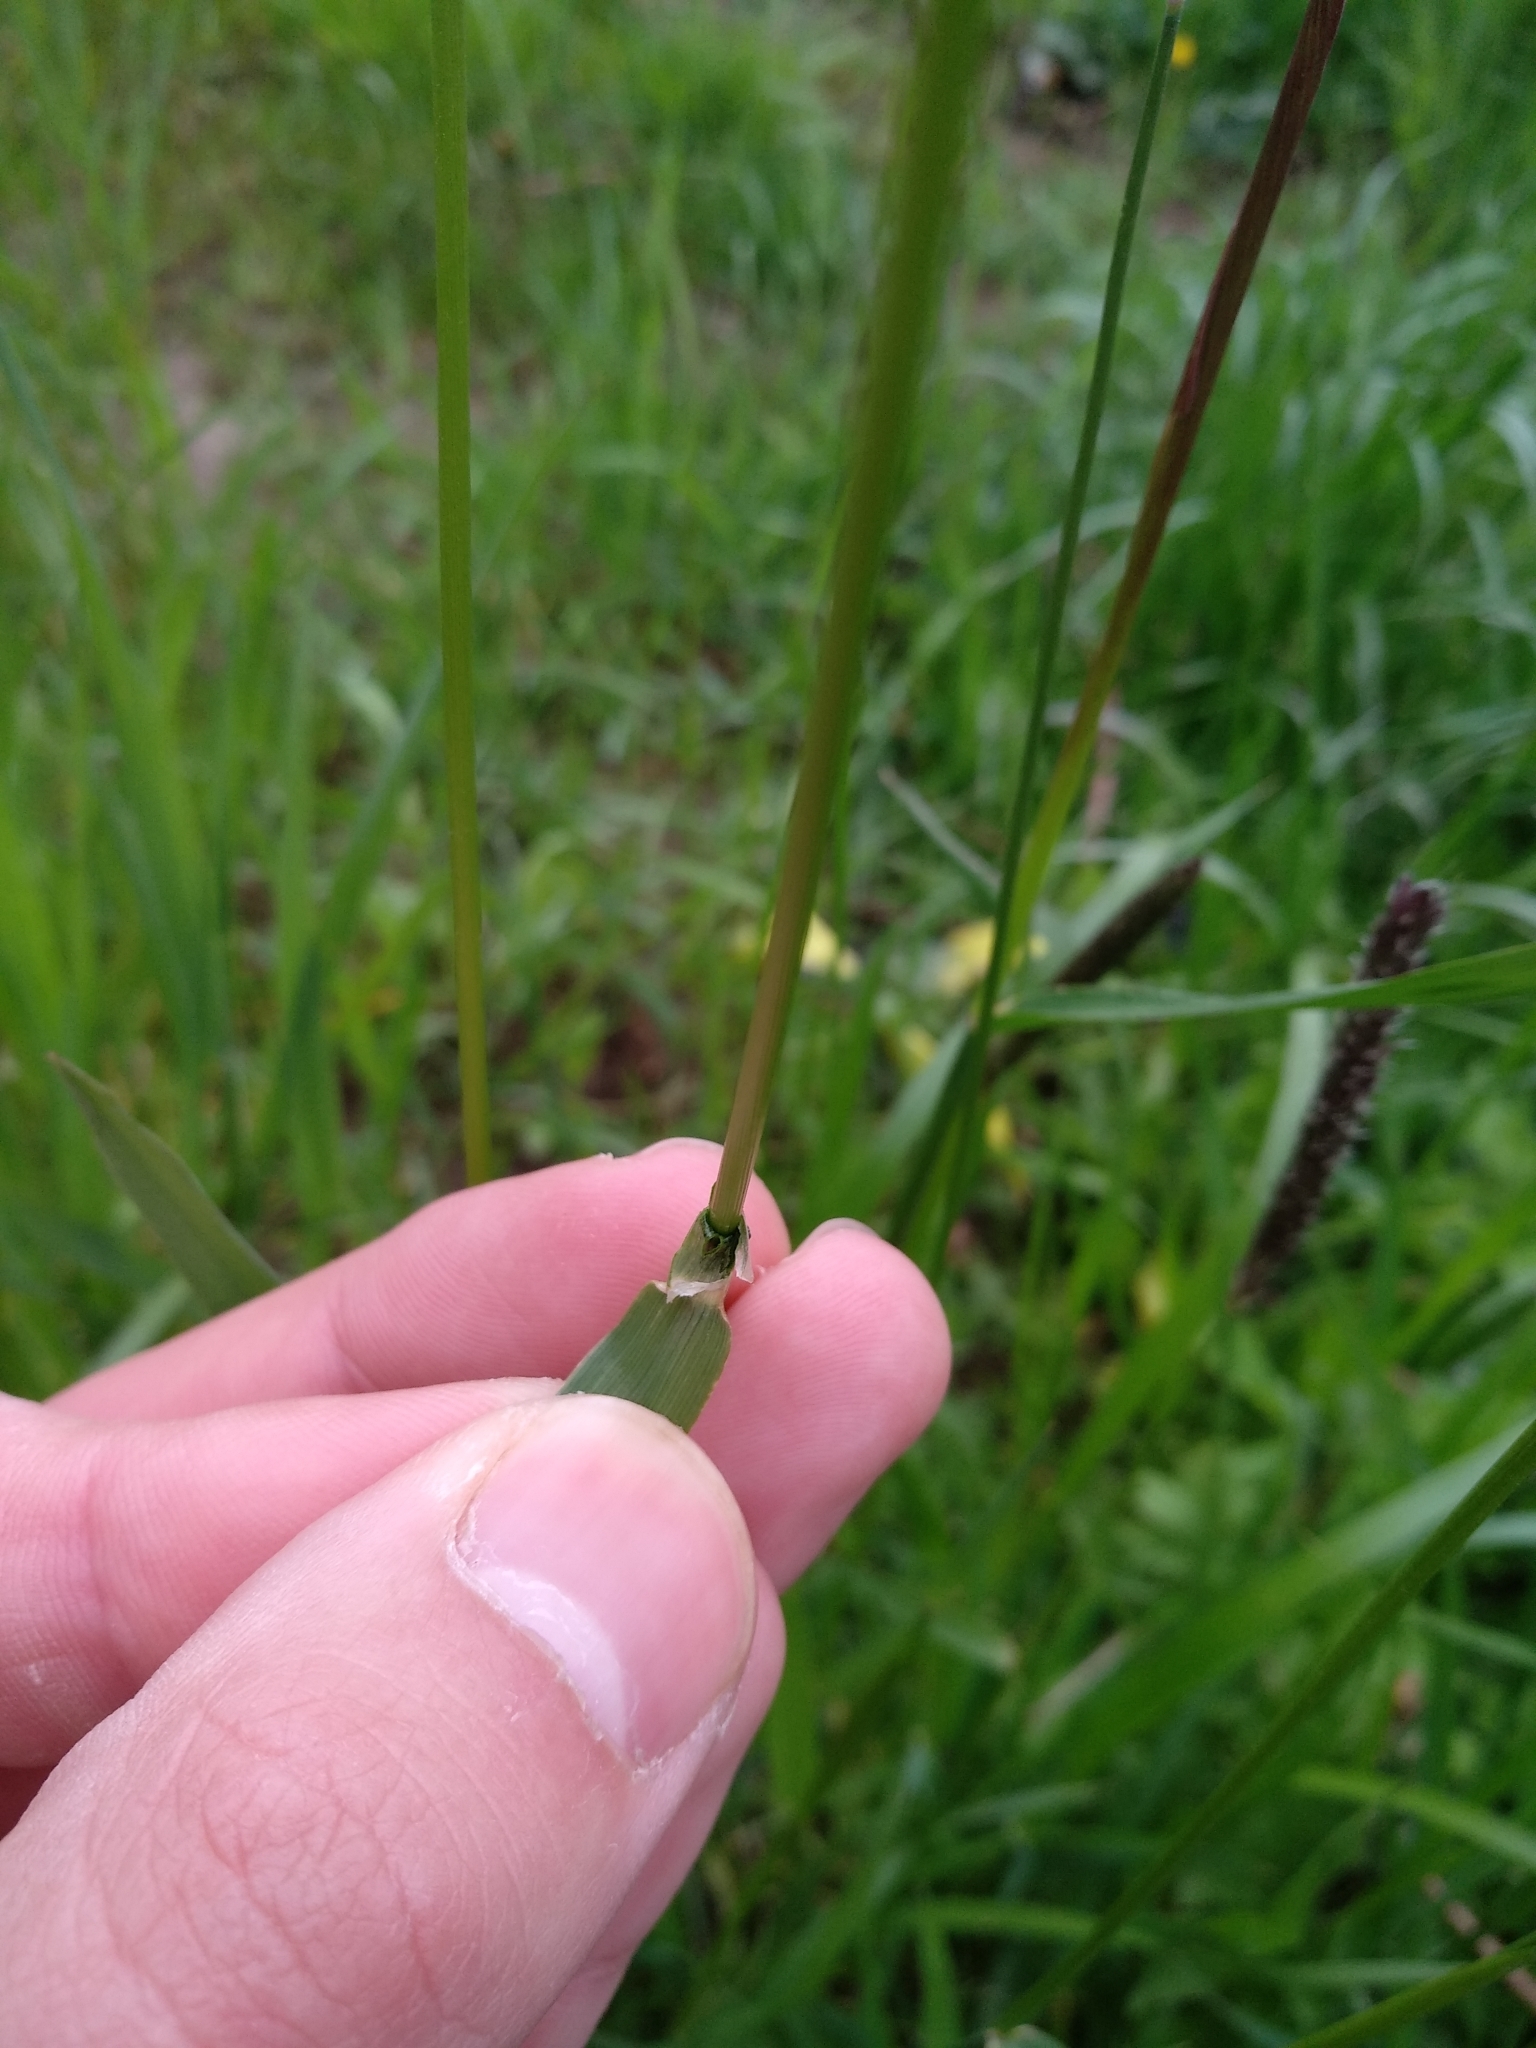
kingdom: Plantae
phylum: Tracheophyta
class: Liliopsida
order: Poales
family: Poaceae
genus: Alopecurus
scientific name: Alopecurus pratensis
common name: Meadow foxtail
